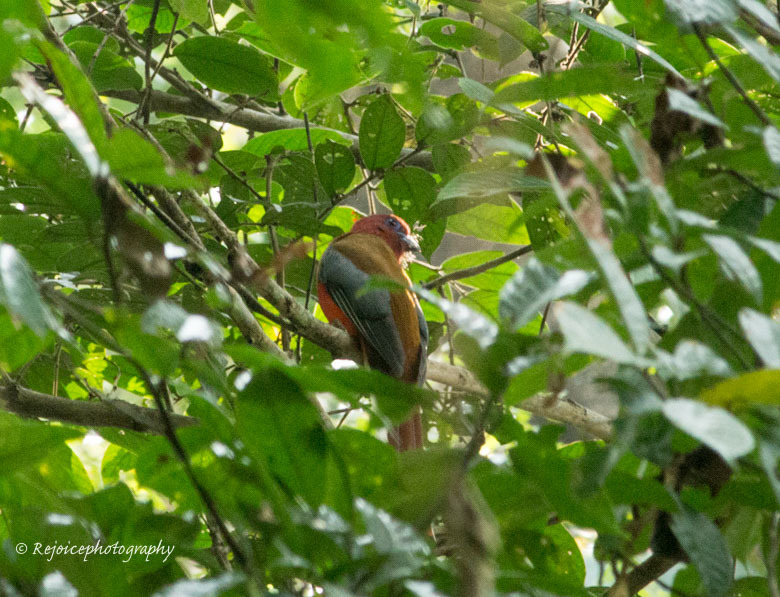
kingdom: Animalia
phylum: Chordata
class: Aves
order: Trogoniformes
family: Trogonidae
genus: Harpactes
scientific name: Harpactes erythrocephalus
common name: Red-headed trogon
